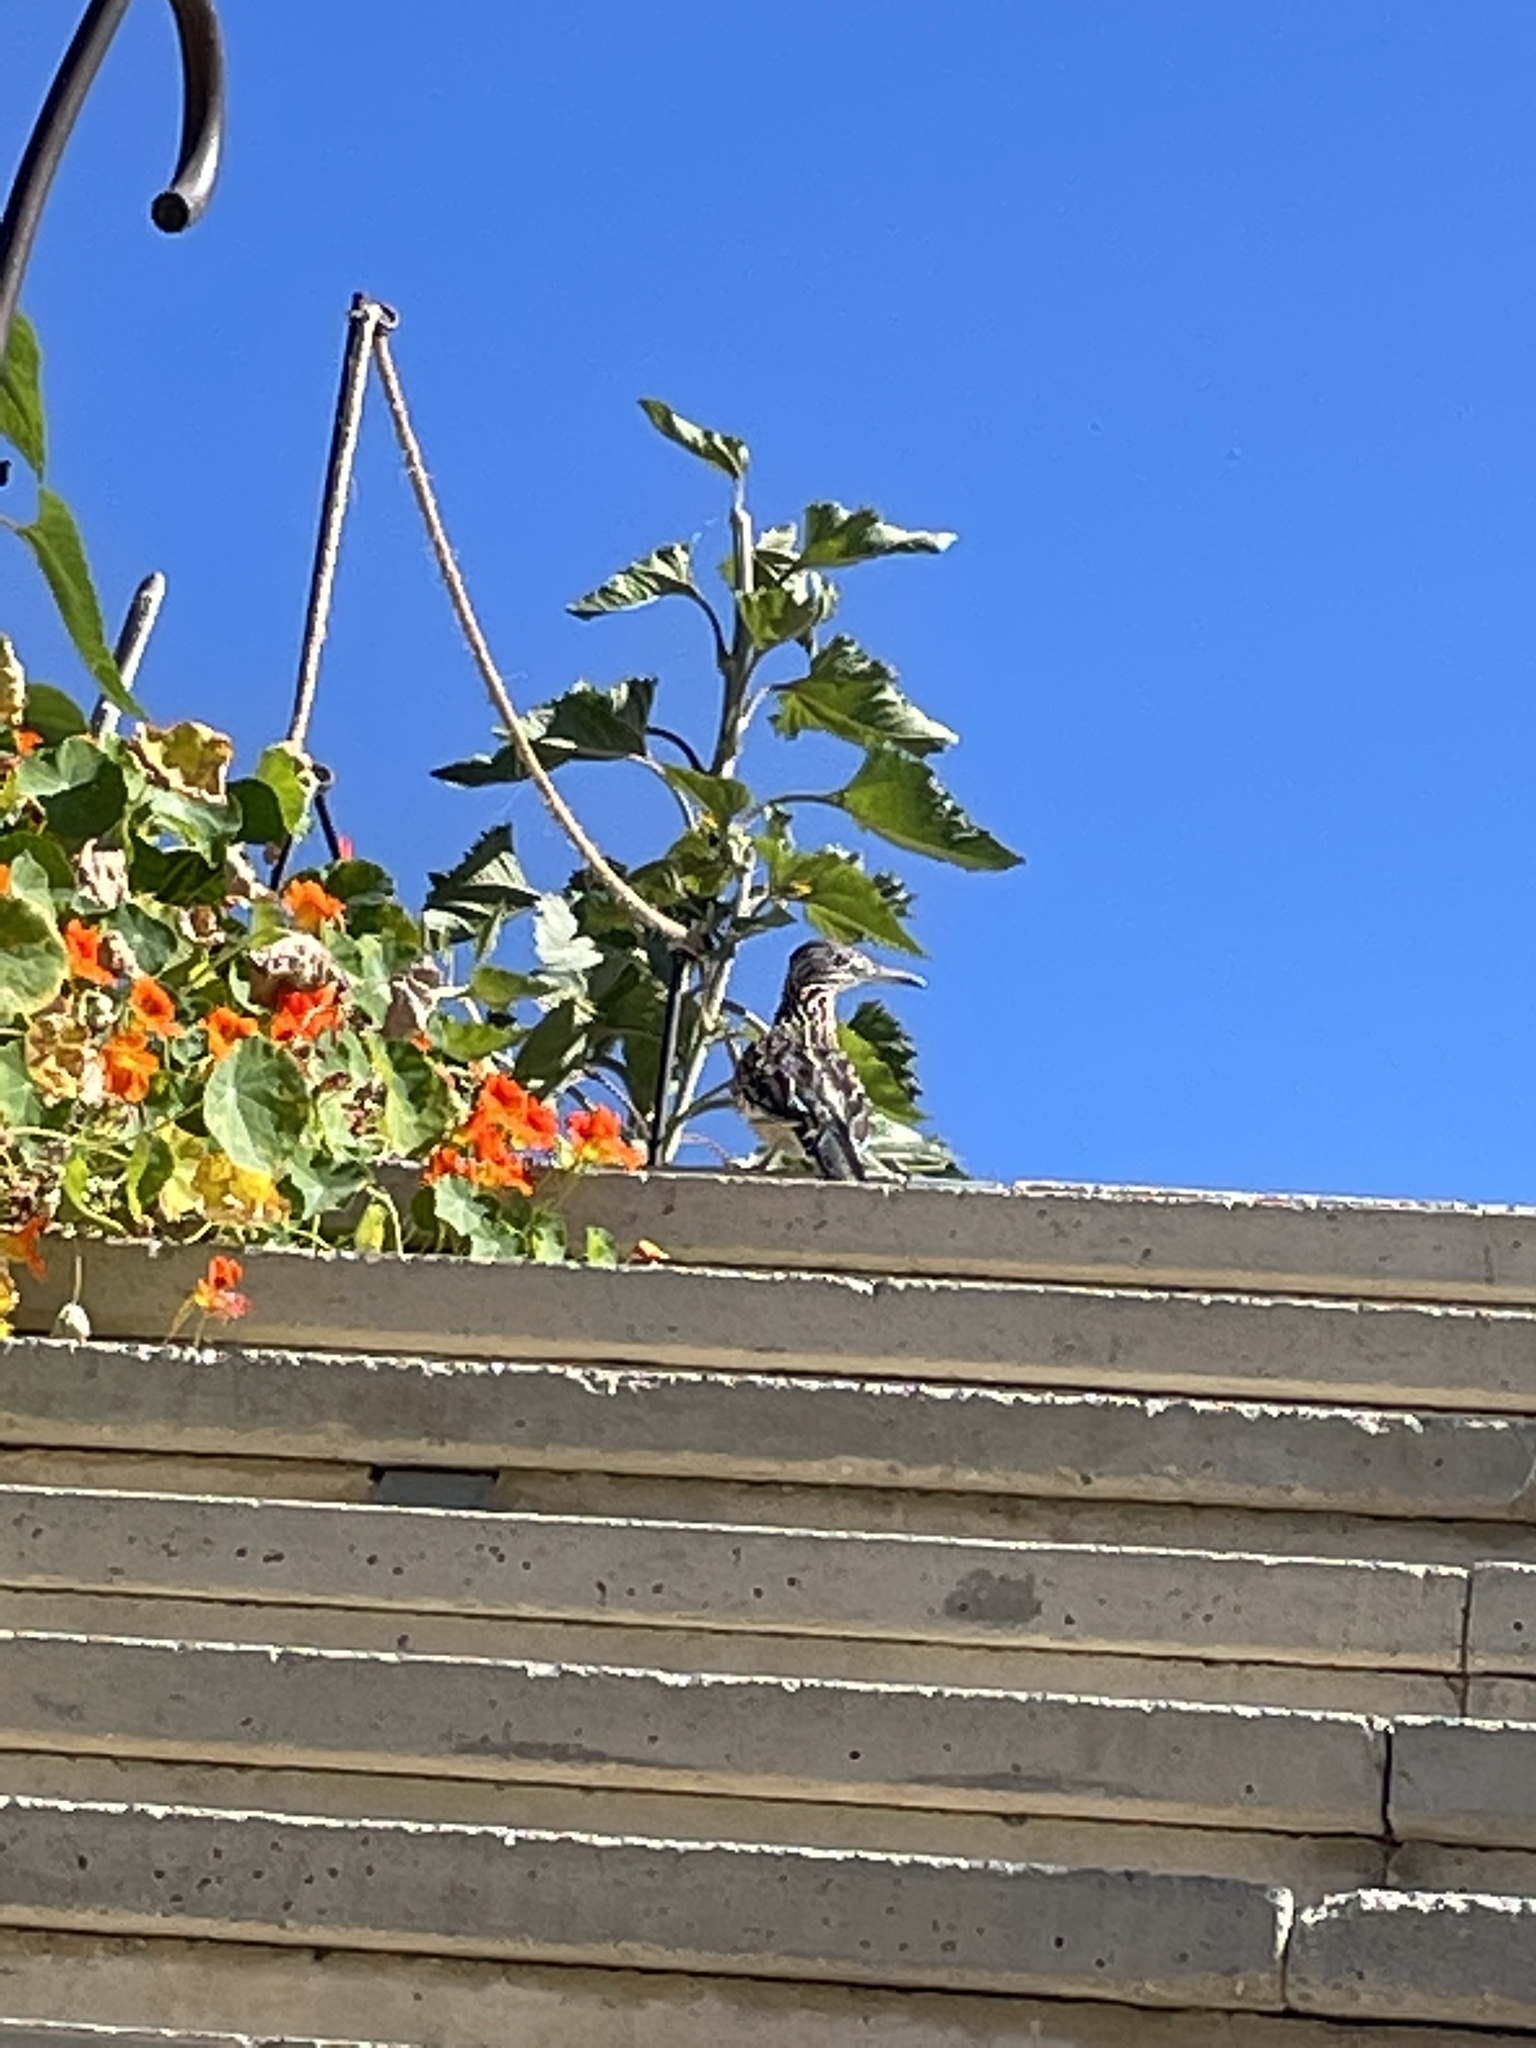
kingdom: Animalia
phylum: Chordata
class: Aves
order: Cuculiformes
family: Cuculidae
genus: Geococcyx
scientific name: Geococcyx californianus
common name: Greater roadrunner
